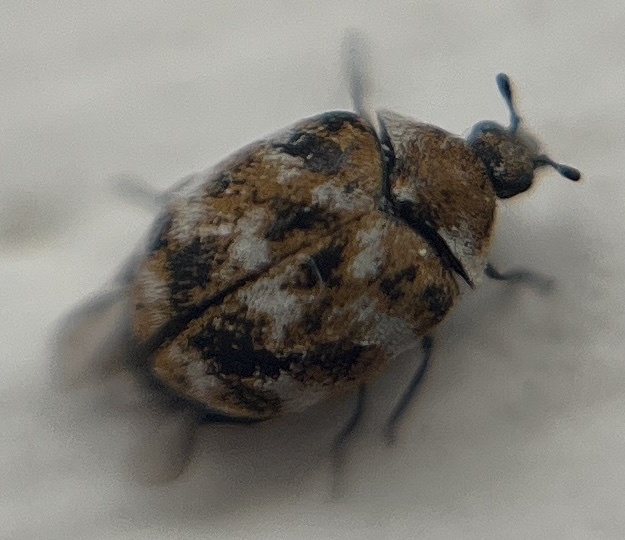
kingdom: Animalia
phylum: Arthropoda
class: Insecta
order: Coleoptera
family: Dermestidae
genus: Anthrenus
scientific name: Anthrenus verbasci
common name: Varied carpet beetle
